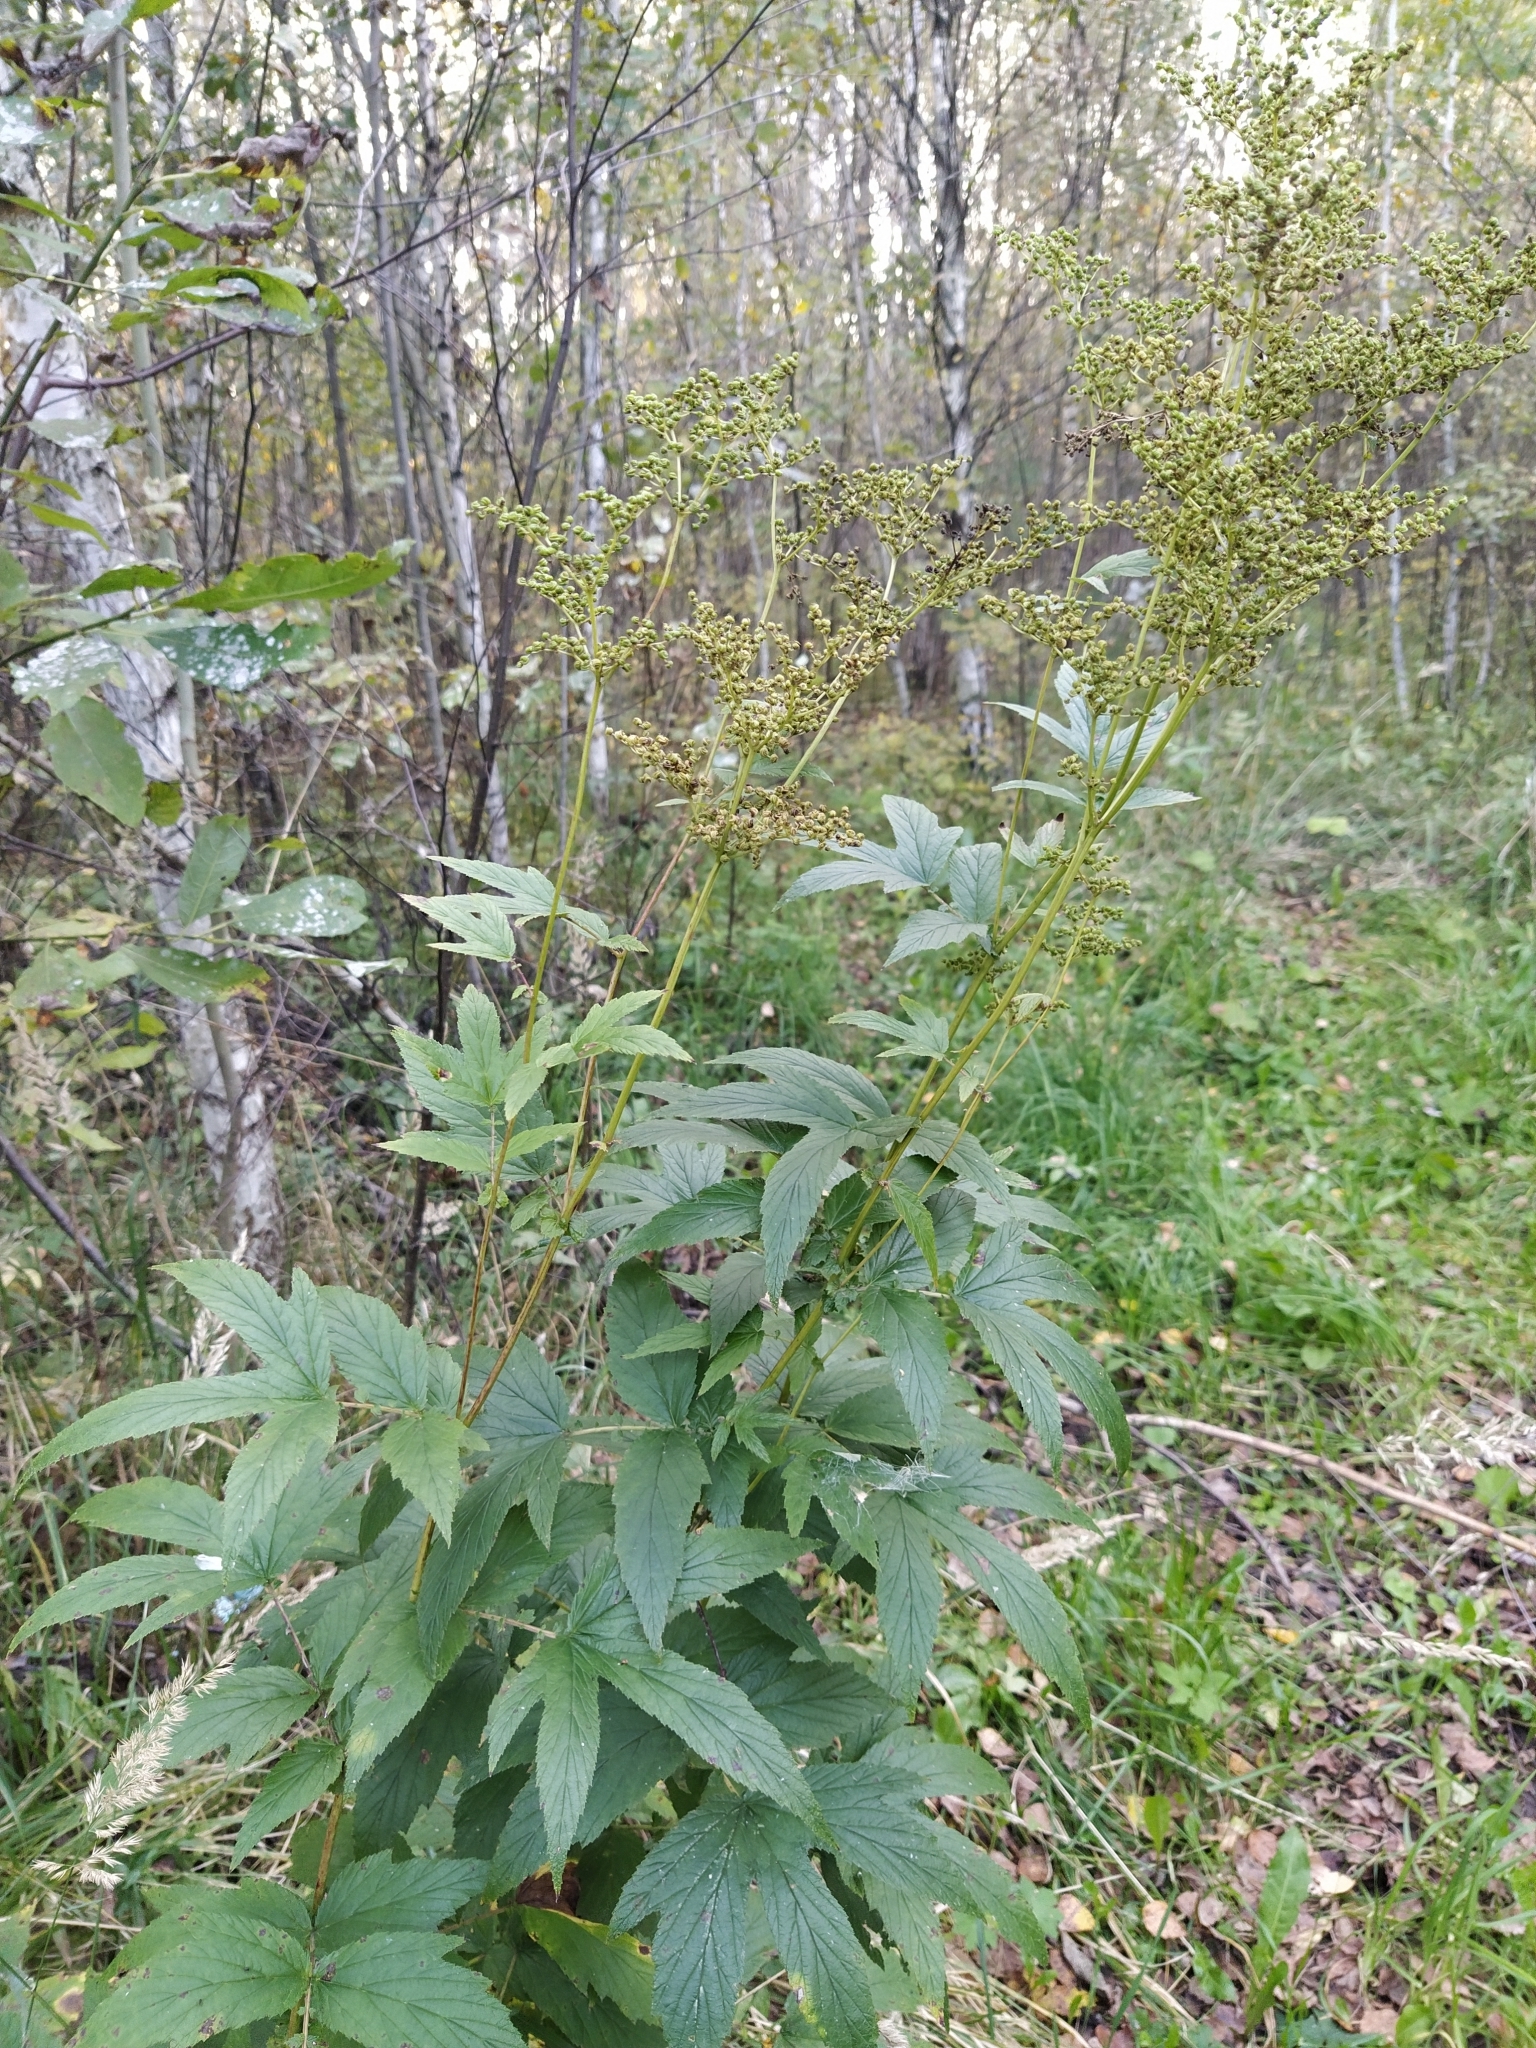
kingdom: Plantae
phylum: Tracheophyta
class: Magnoliopsida
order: Rosales
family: Rosaceae
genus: Filipendula
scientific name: Filipendula ulmaria
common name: Meadowsweet
